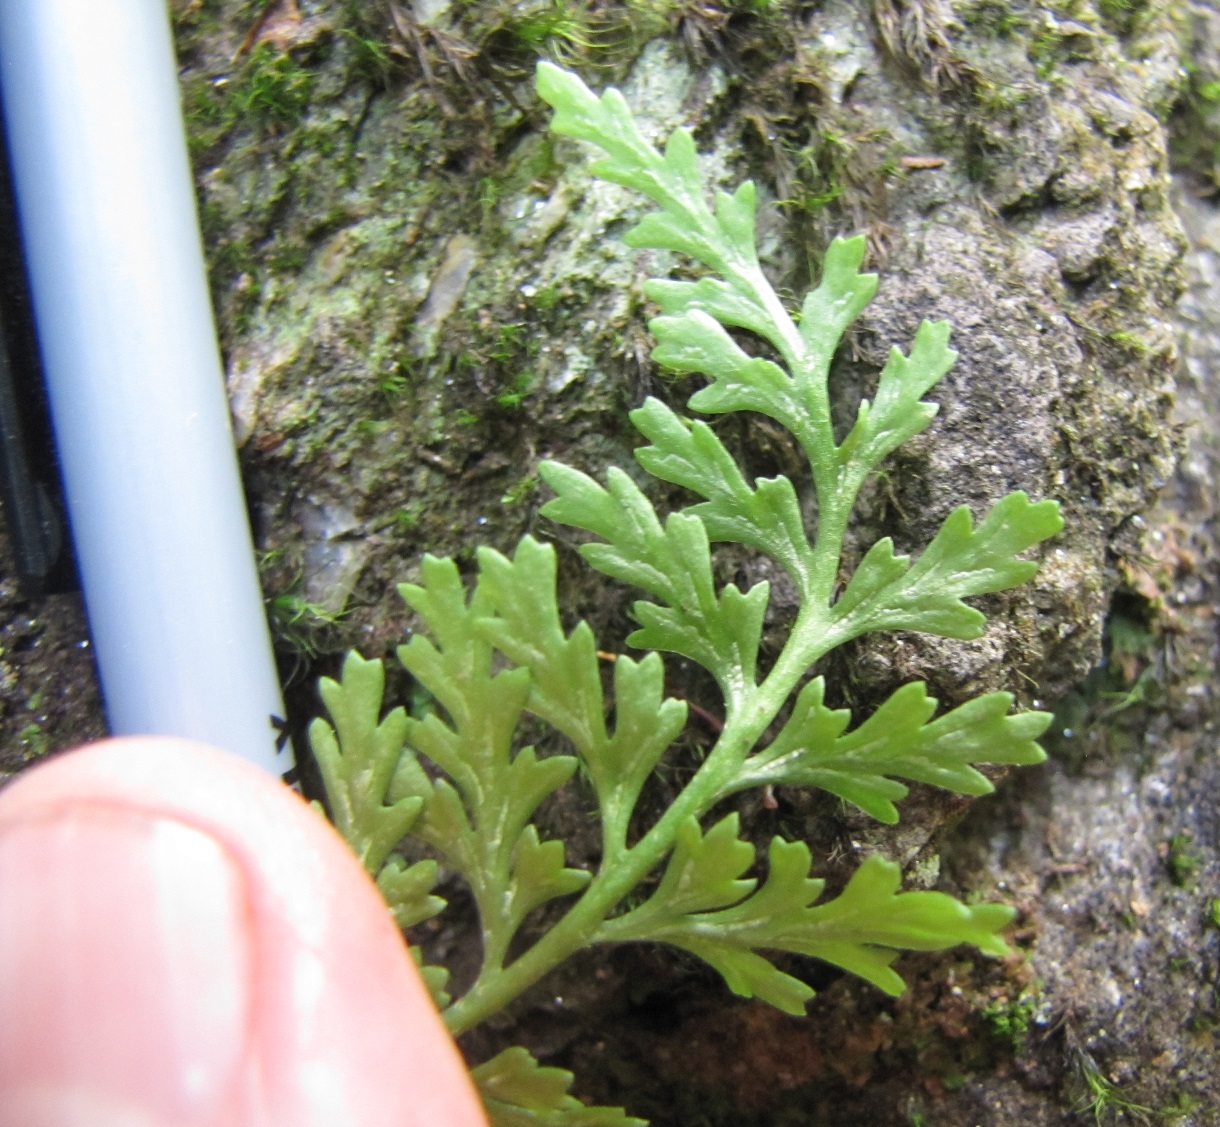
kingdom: Plantae
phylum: Tracheophyta
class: Polypodiopsida
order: Polypodiales
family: Aspleniaceae
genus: Asplenium
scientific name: Asplenium montanum
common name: Mountain spleenwort
